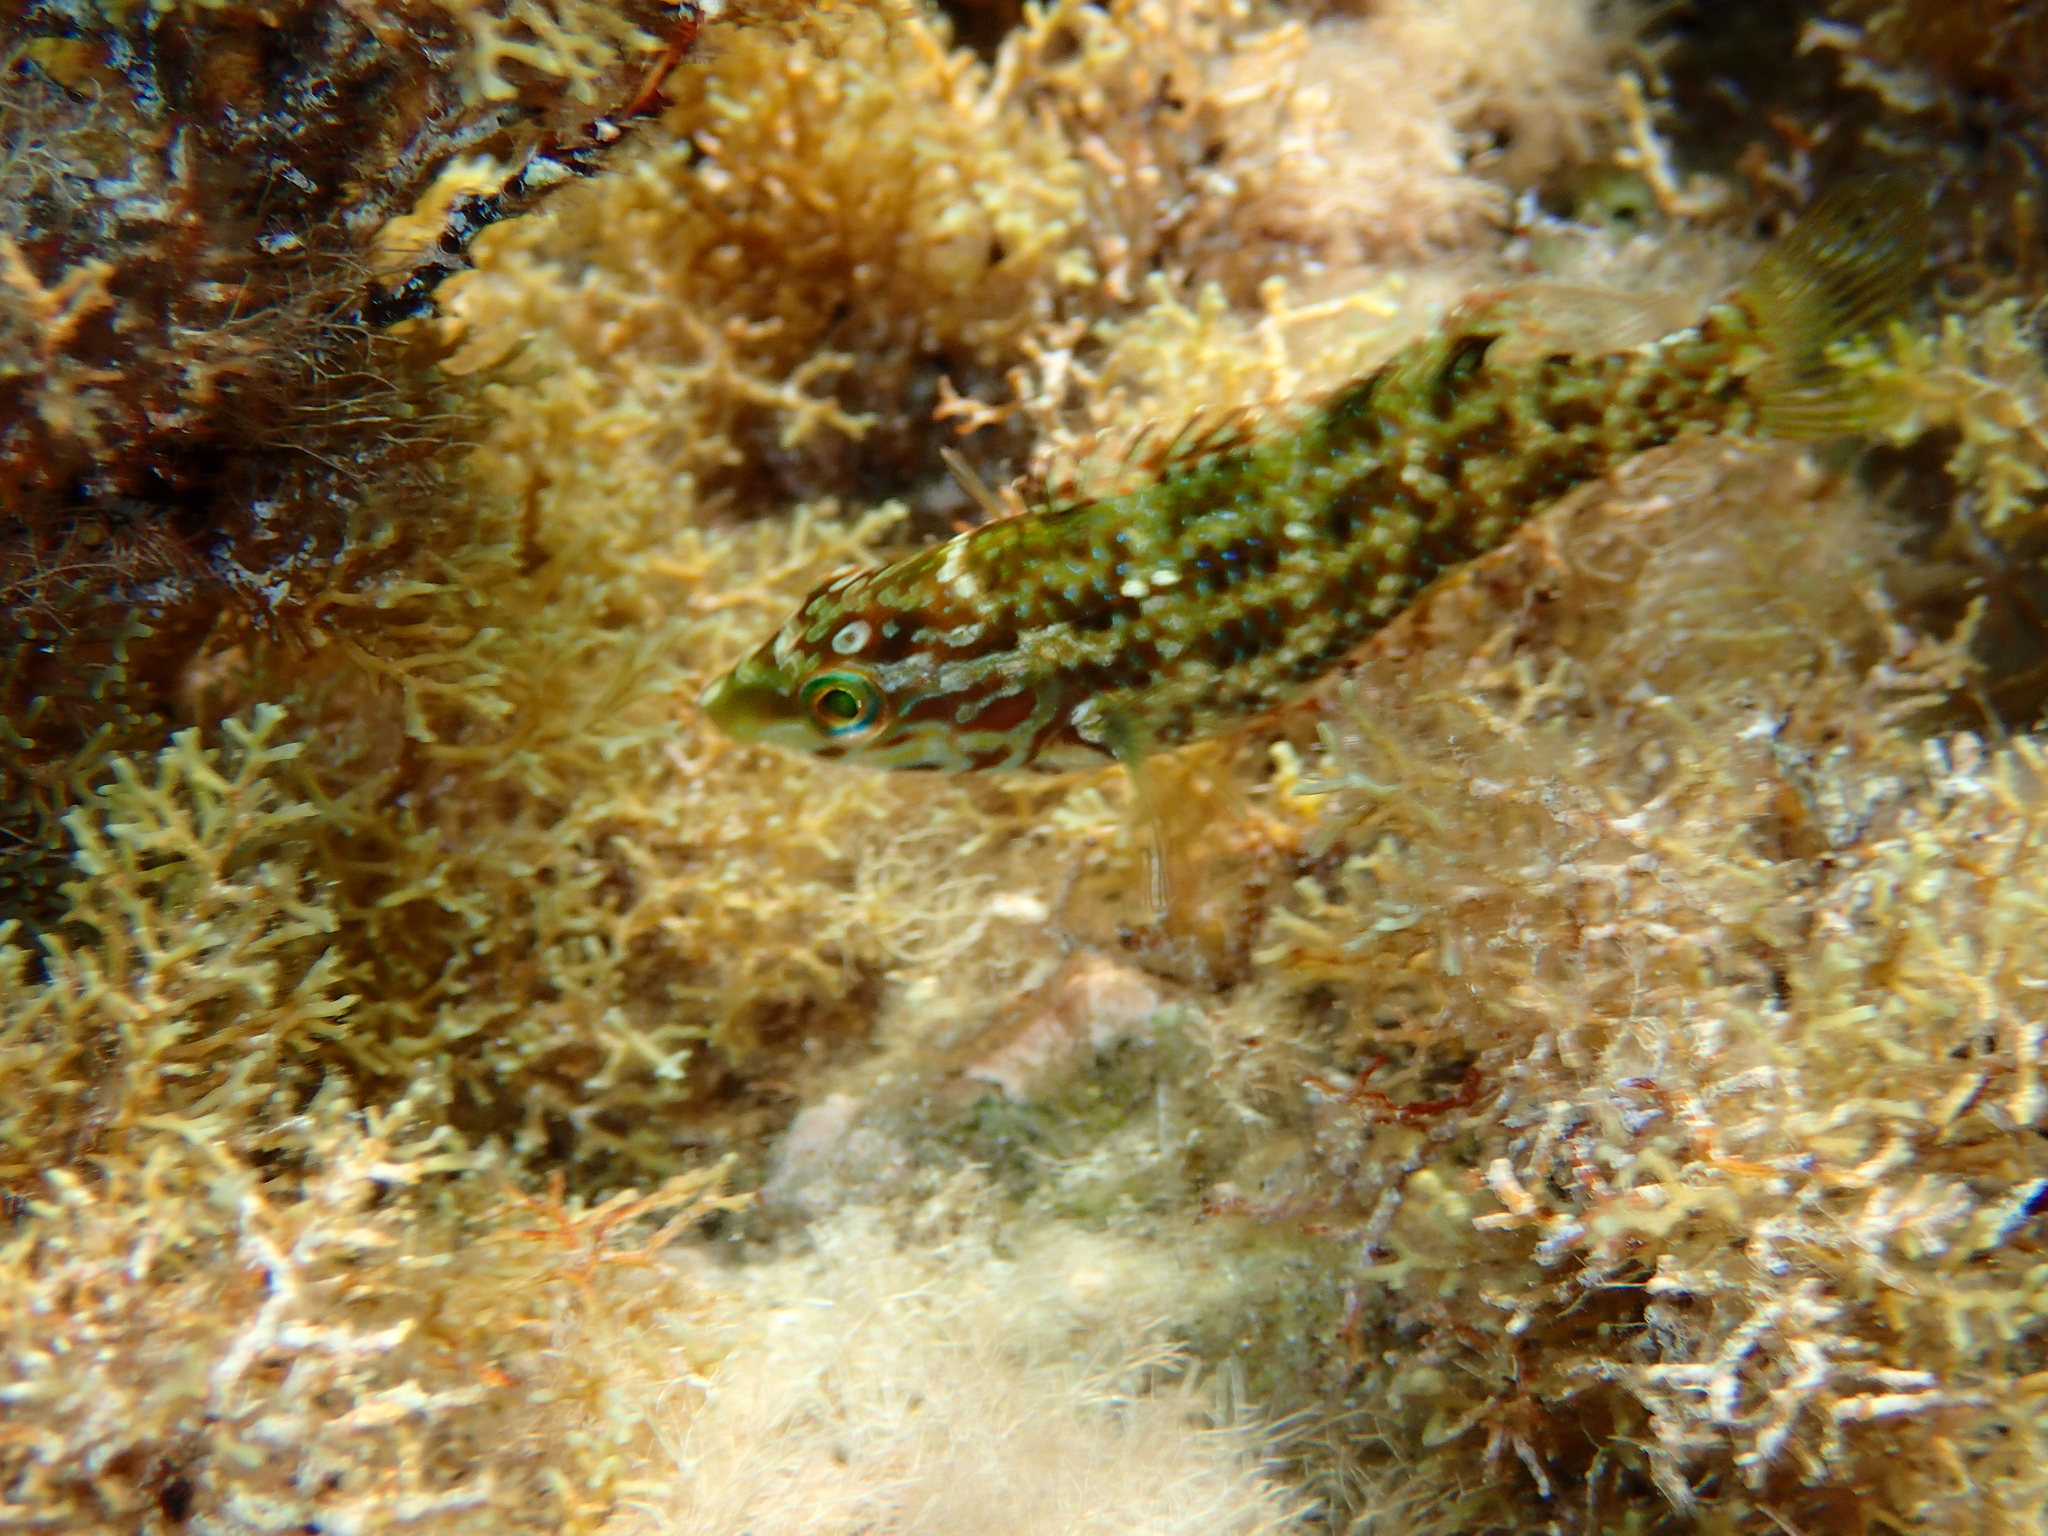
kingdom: Animalia
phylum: Chordata
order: Perciformes
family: Labridae
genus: Symphodus
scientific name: Symphodus roissali
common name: Five-spotted wrasse
